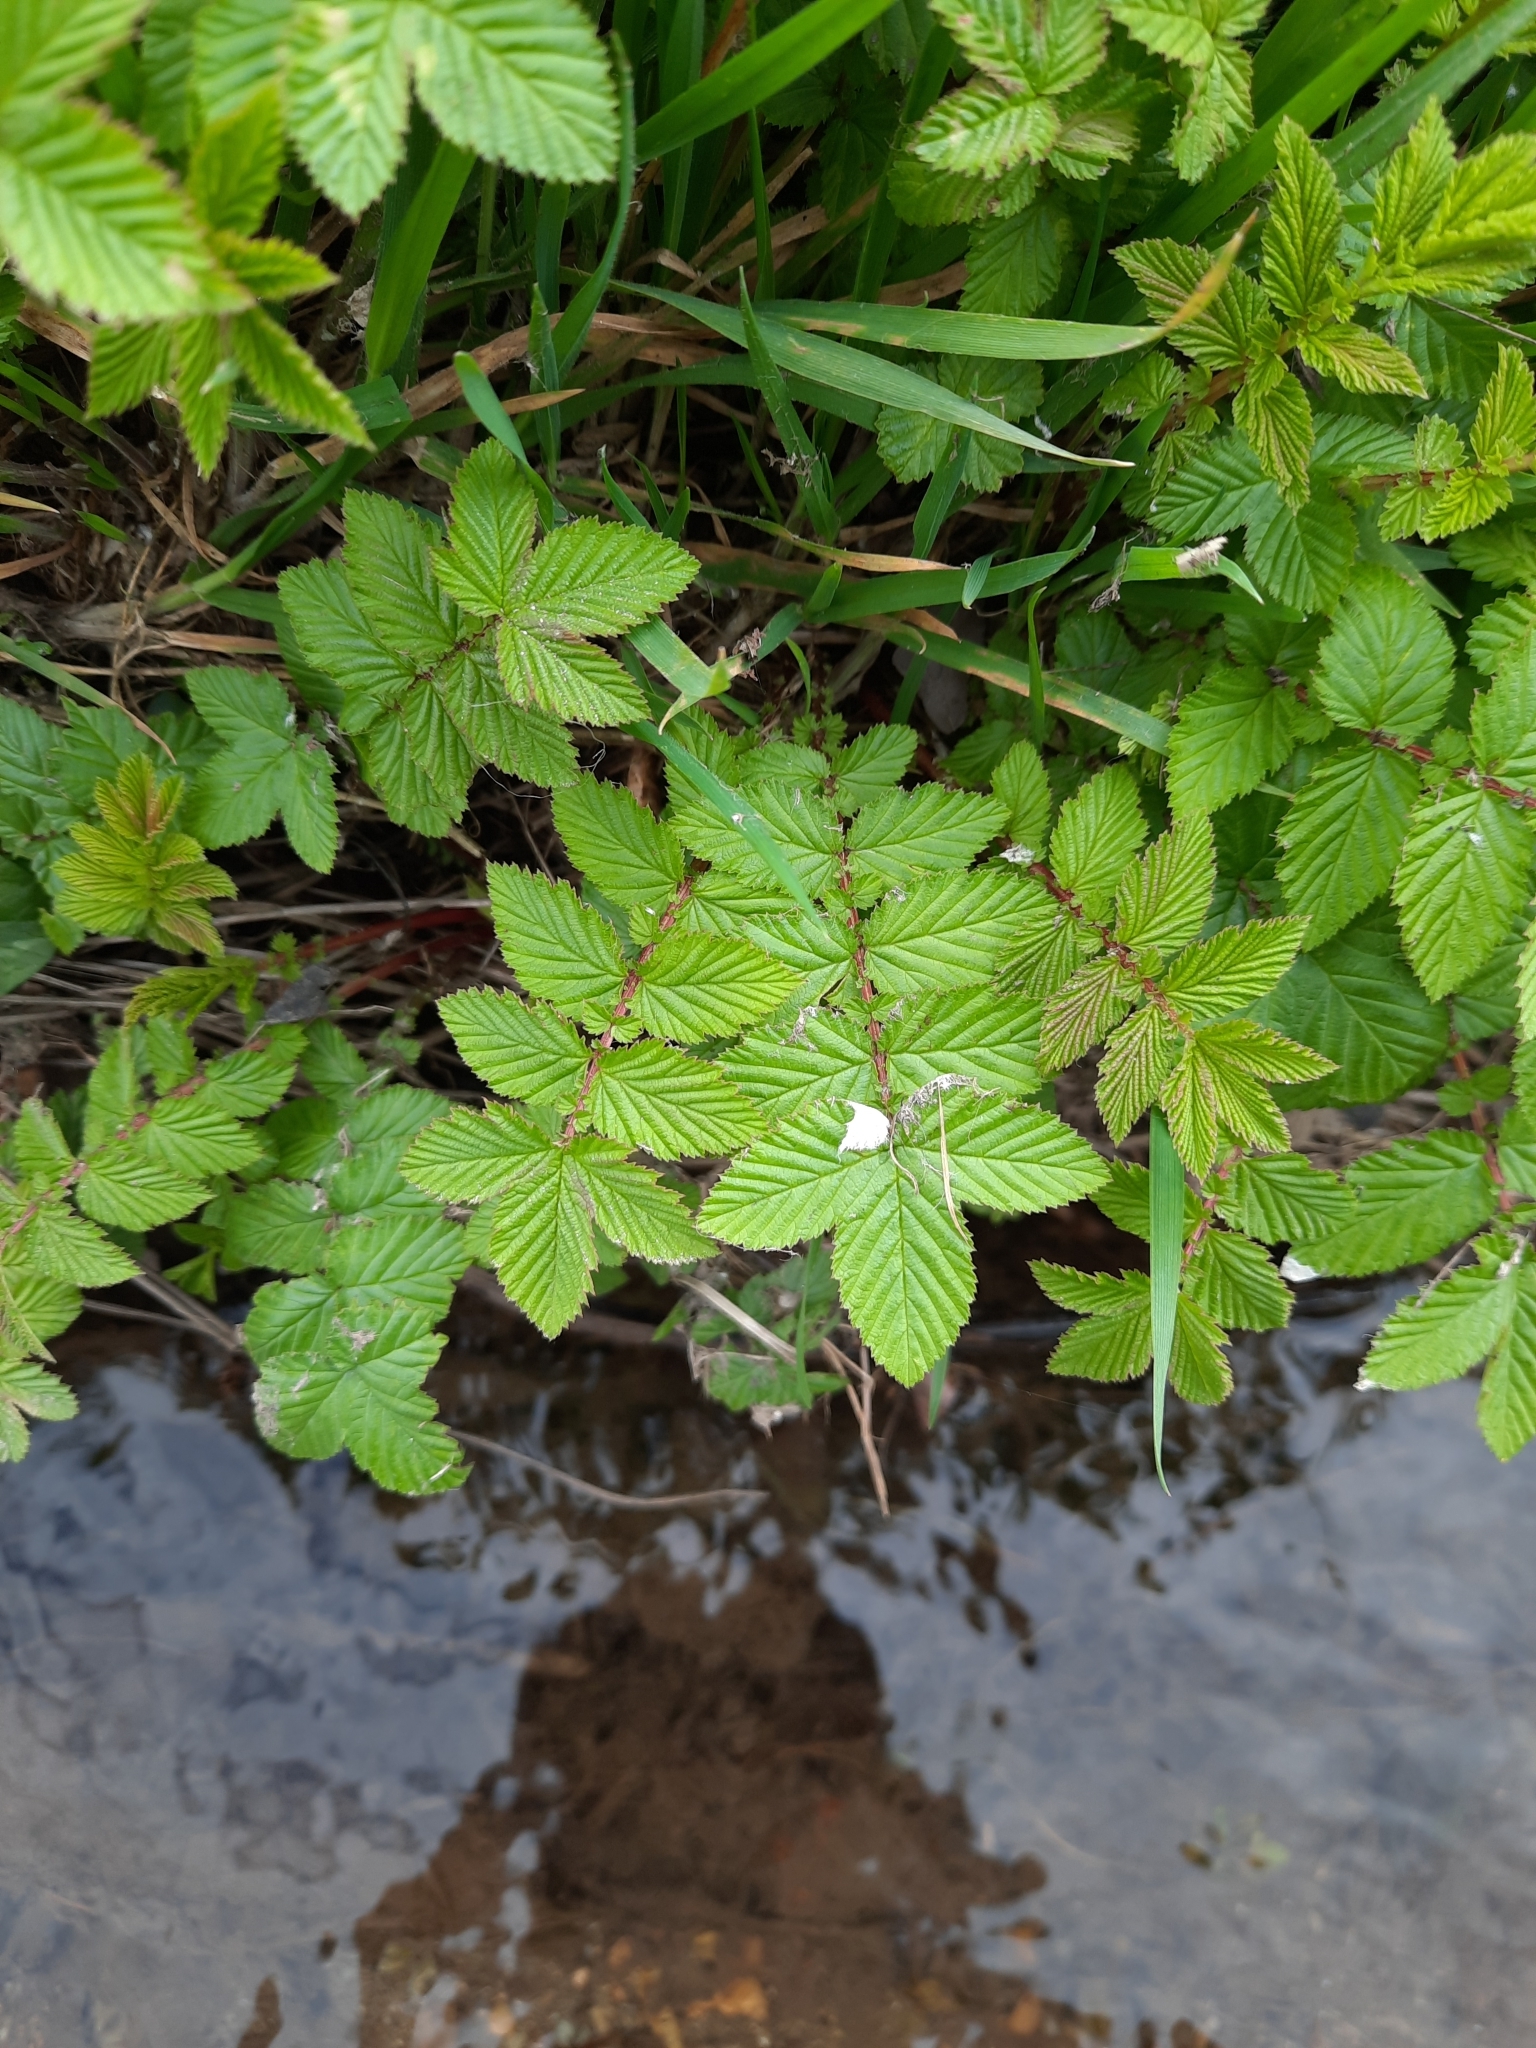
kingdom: Plantae
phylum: Tracheophyta
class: Magnoliopsida
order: Rosales
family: Rosaceae
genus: Filipendula
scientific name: Filipendula ulmaria
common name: Meadowsweet
